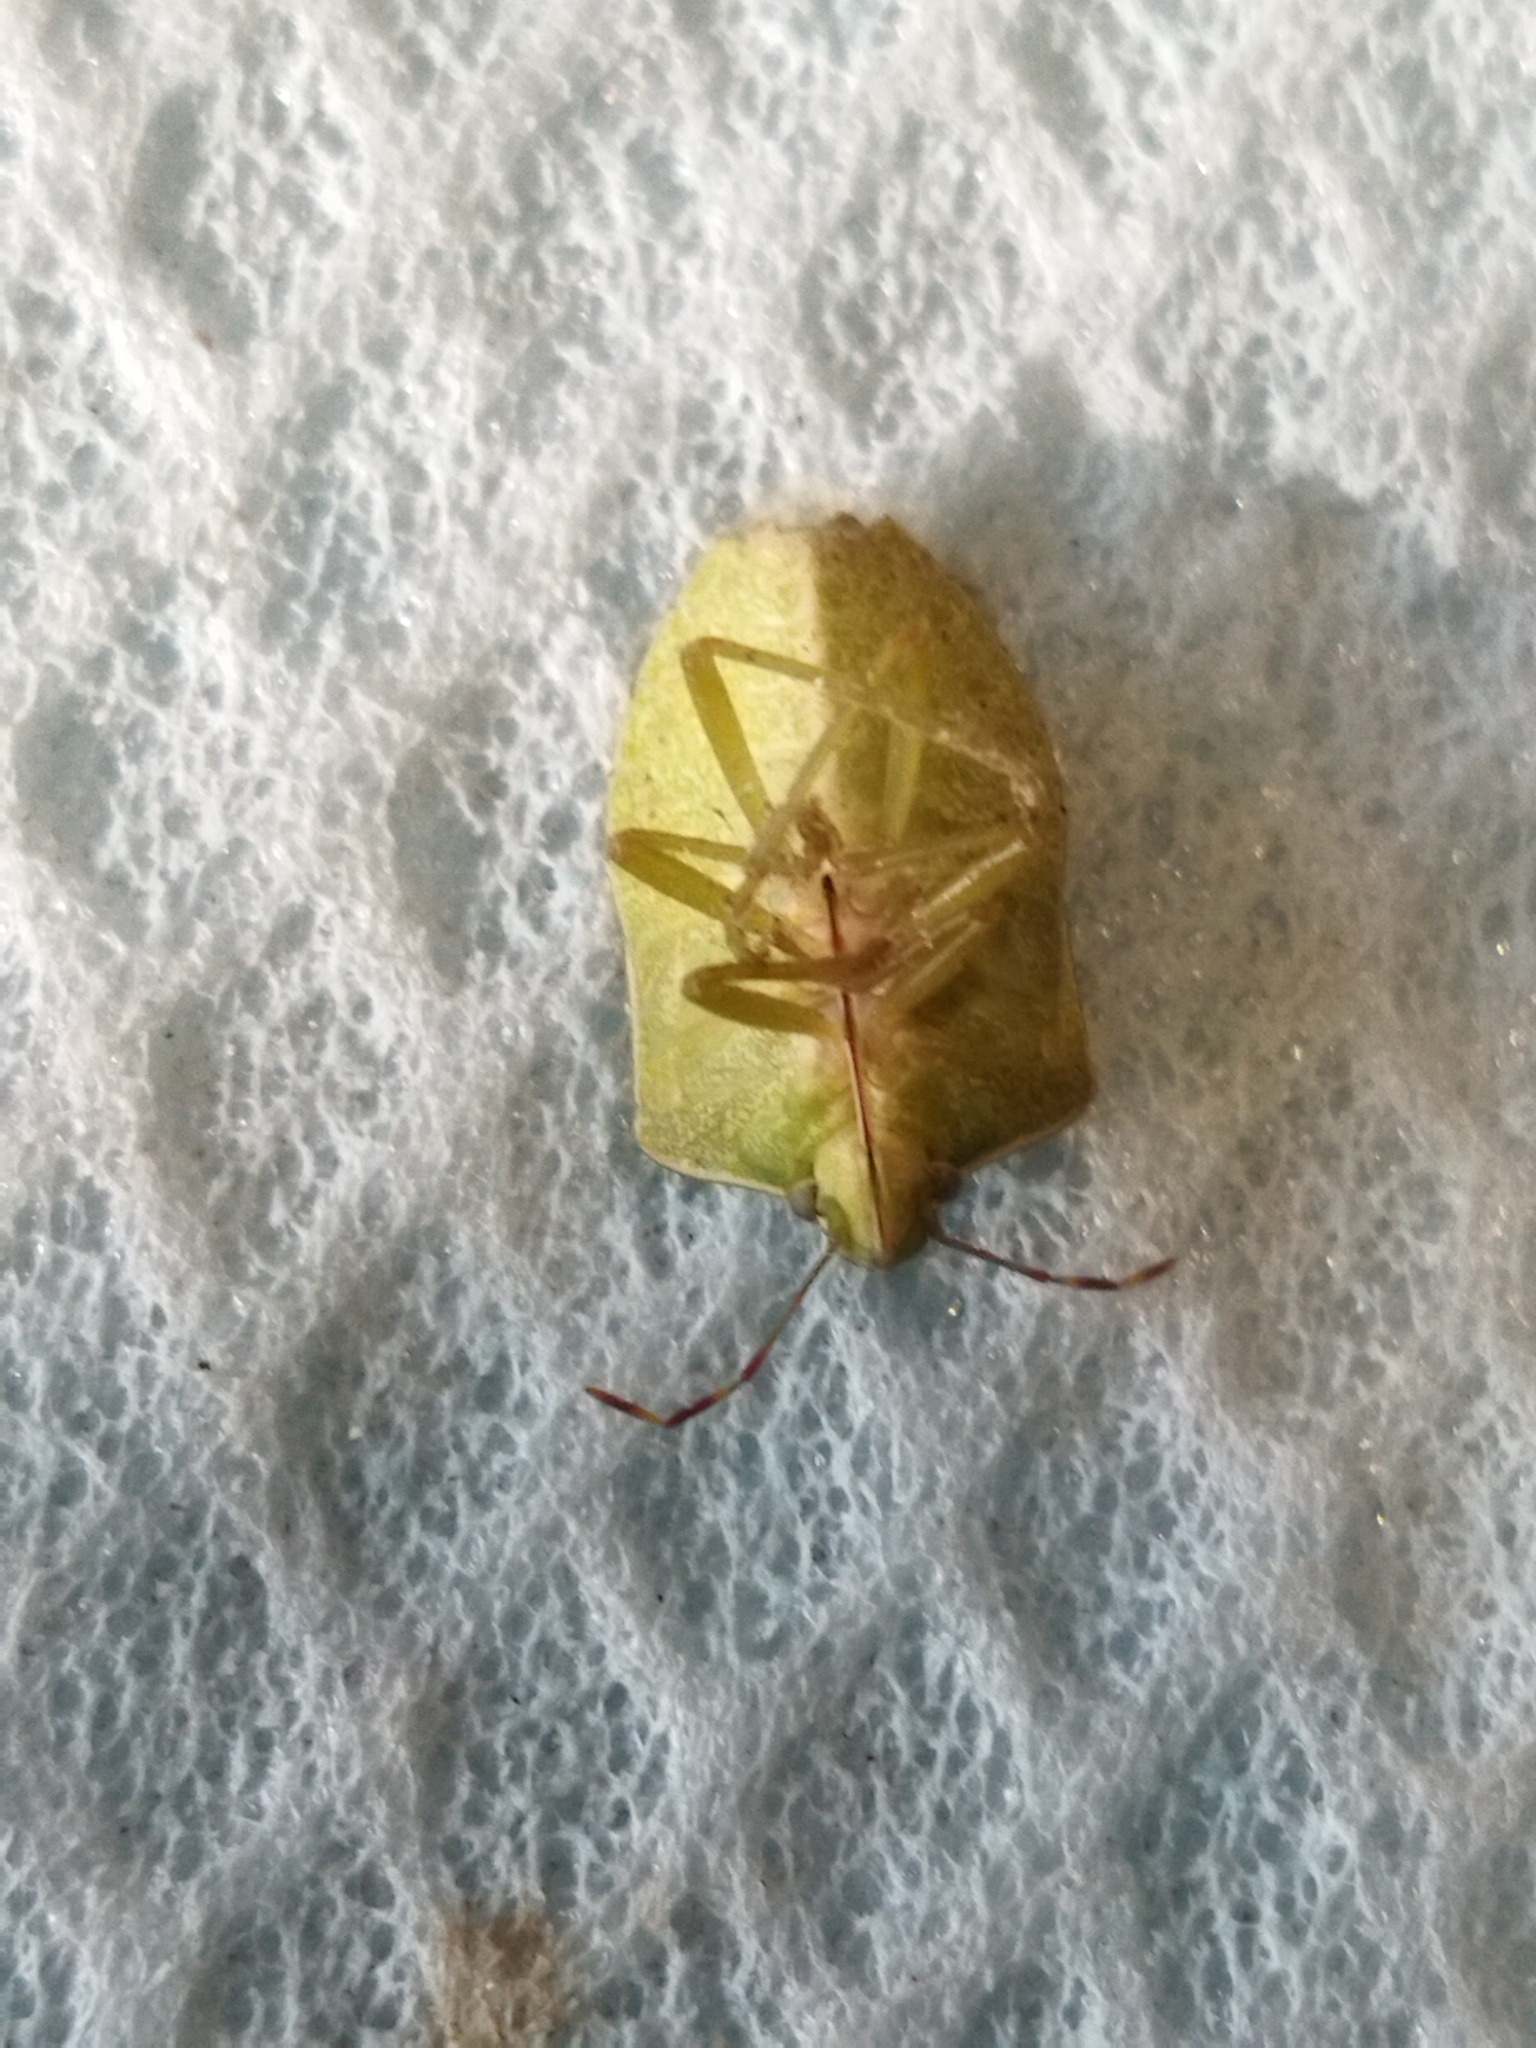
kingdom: Animalia
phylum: Arthropoda
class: Insecta
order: Hemiptera
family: Pentatomidae
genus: Nezara
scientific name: Nezara viridula
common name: Southern green stink bug
